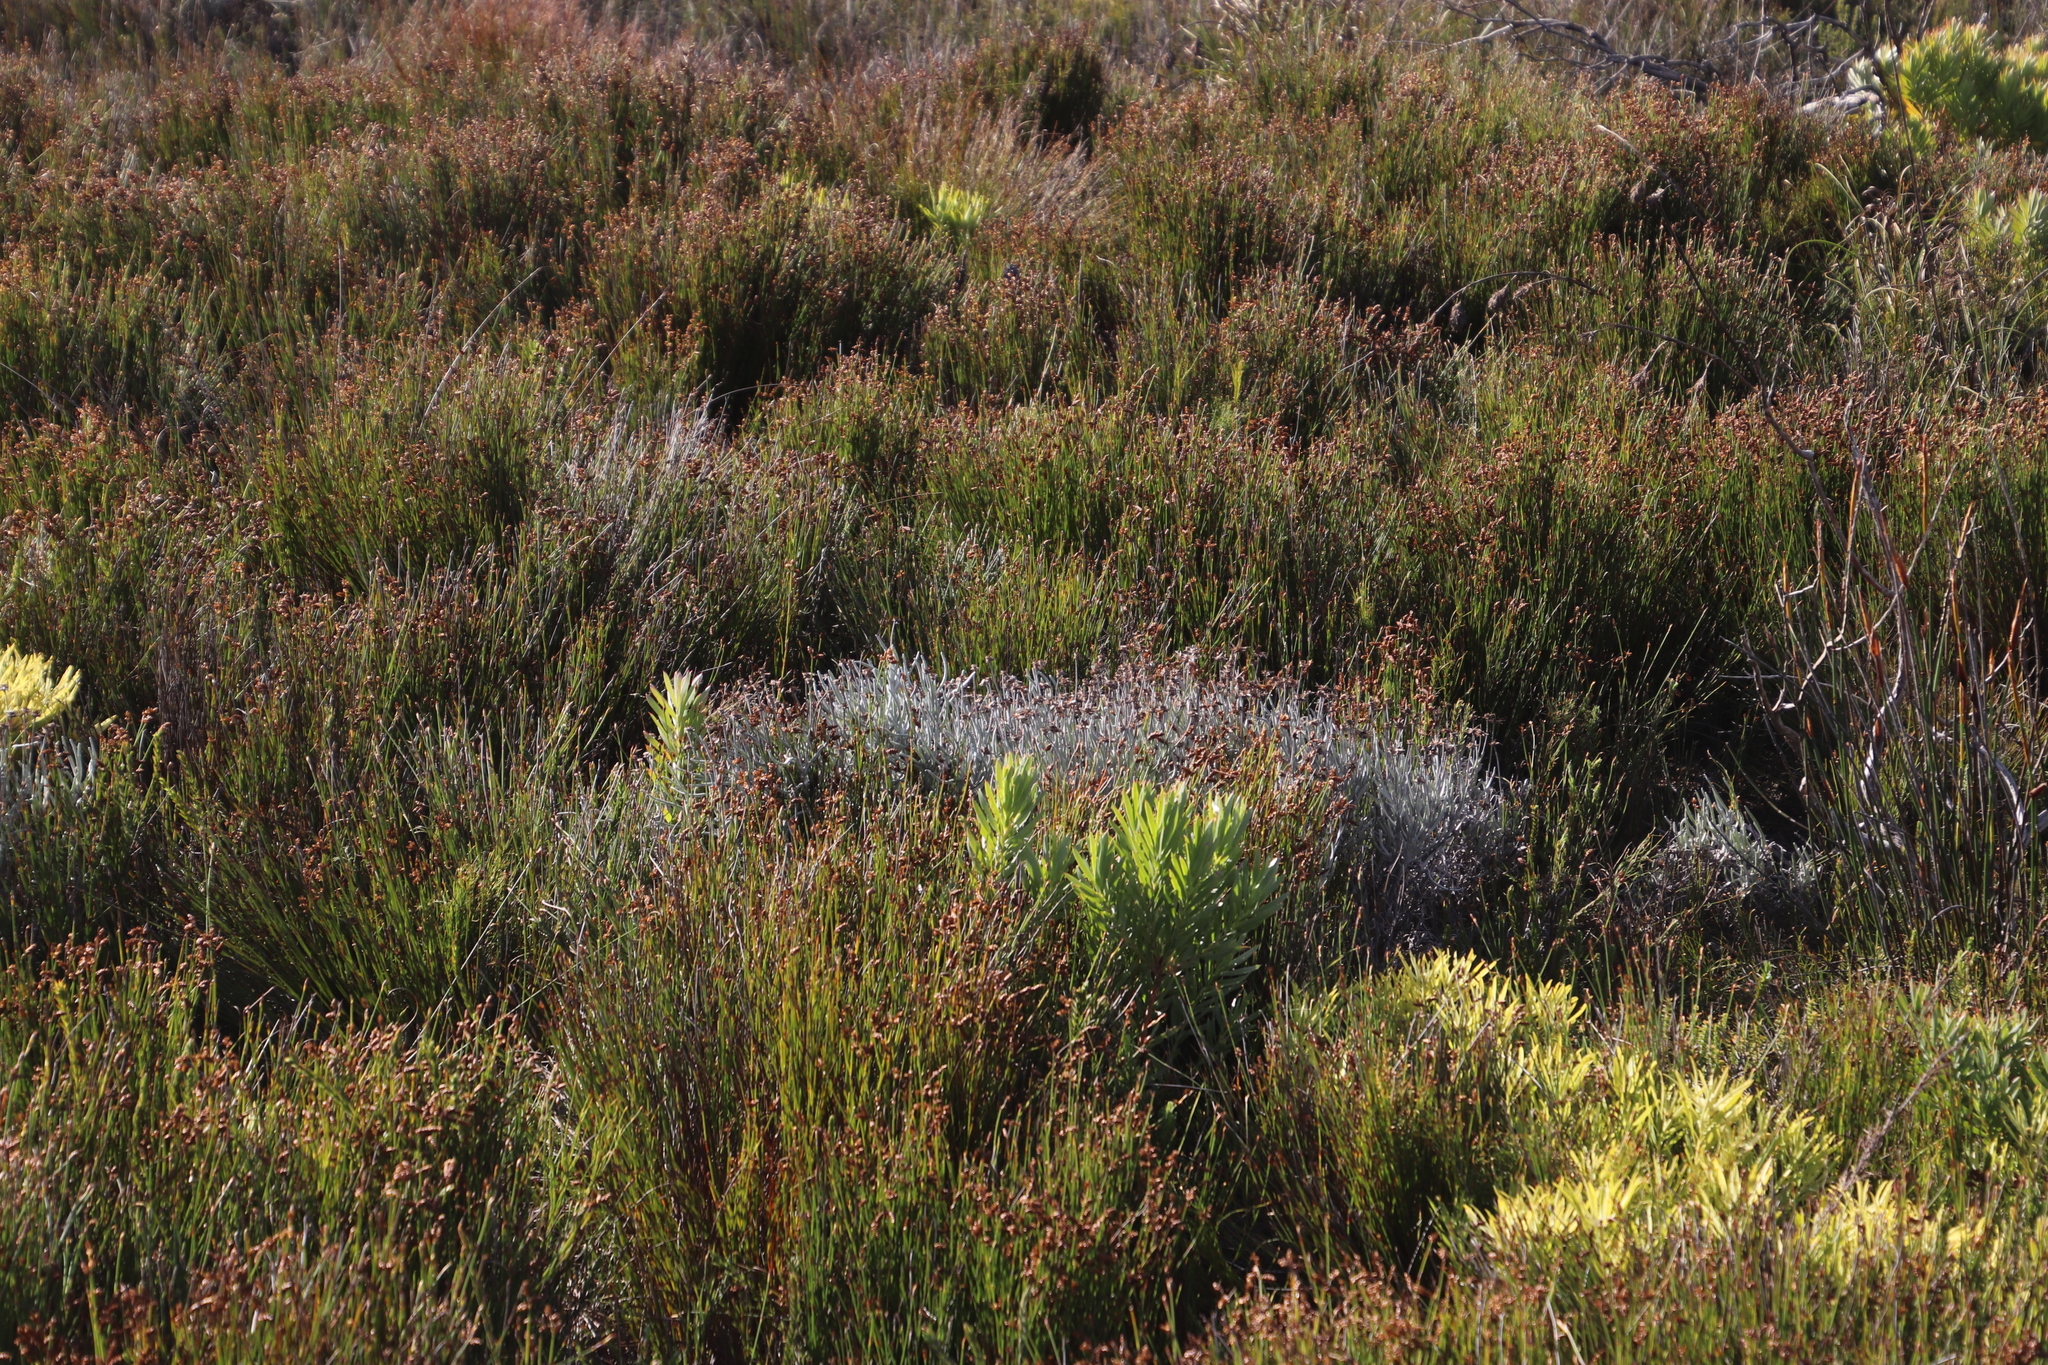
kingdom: Plantae
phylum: Tracheophyta
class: Magnoliopsida
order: Asterales
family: Asteraceae
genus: Syncarpha
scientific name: Syncarpha gnaphaloides
